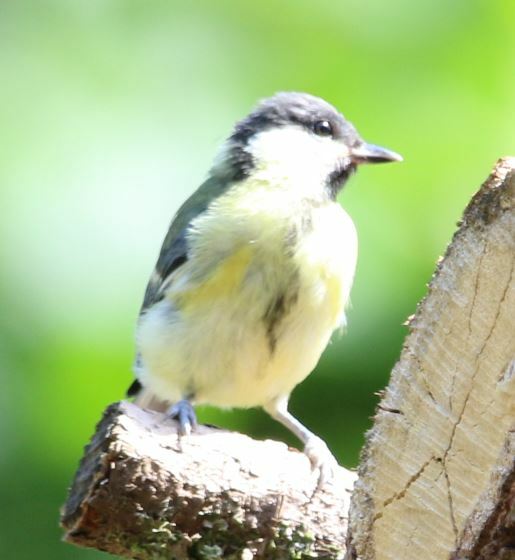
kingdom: Animalia
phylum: Chordata
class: Aves
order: Passeriformes
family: Paridae
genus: Parus
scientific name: Parus major
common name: Great tit
